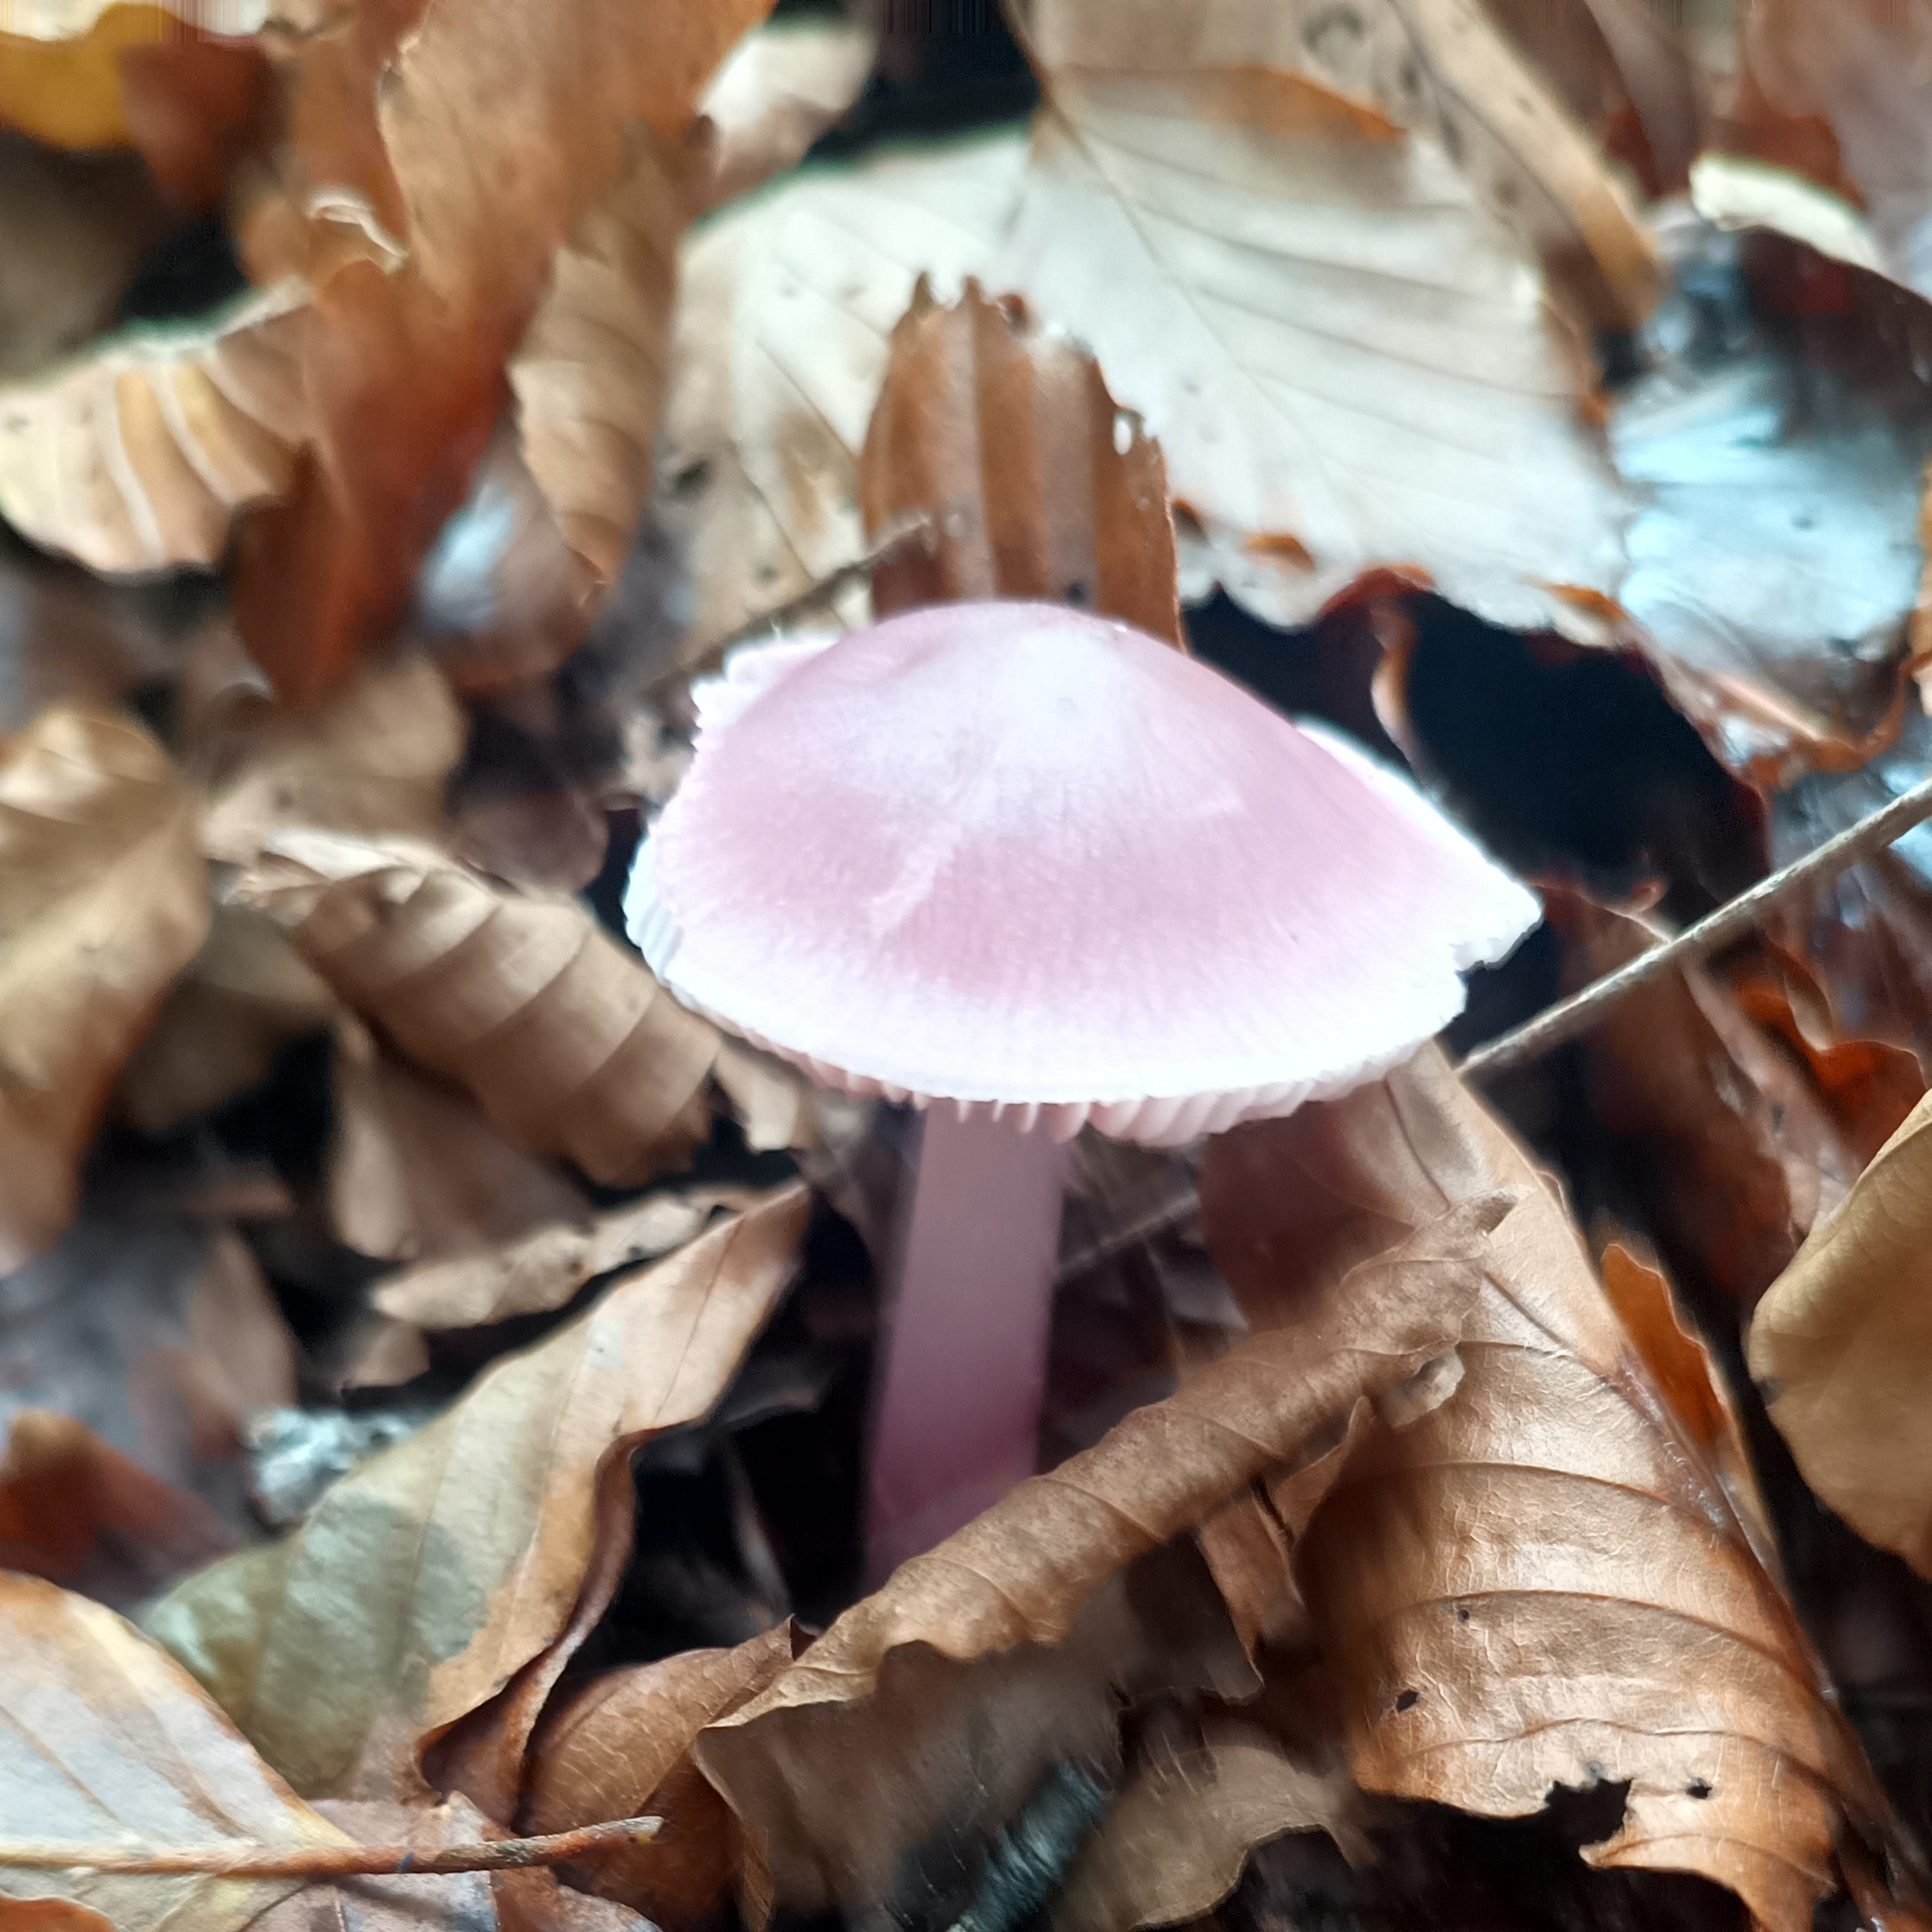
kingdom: Fungi
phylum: Basidiomycota
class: Agaricomycetes
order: Agaricales
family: Mycenaceae
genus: Mycena
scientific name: Mycena rosea
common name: Rosy bonnet
